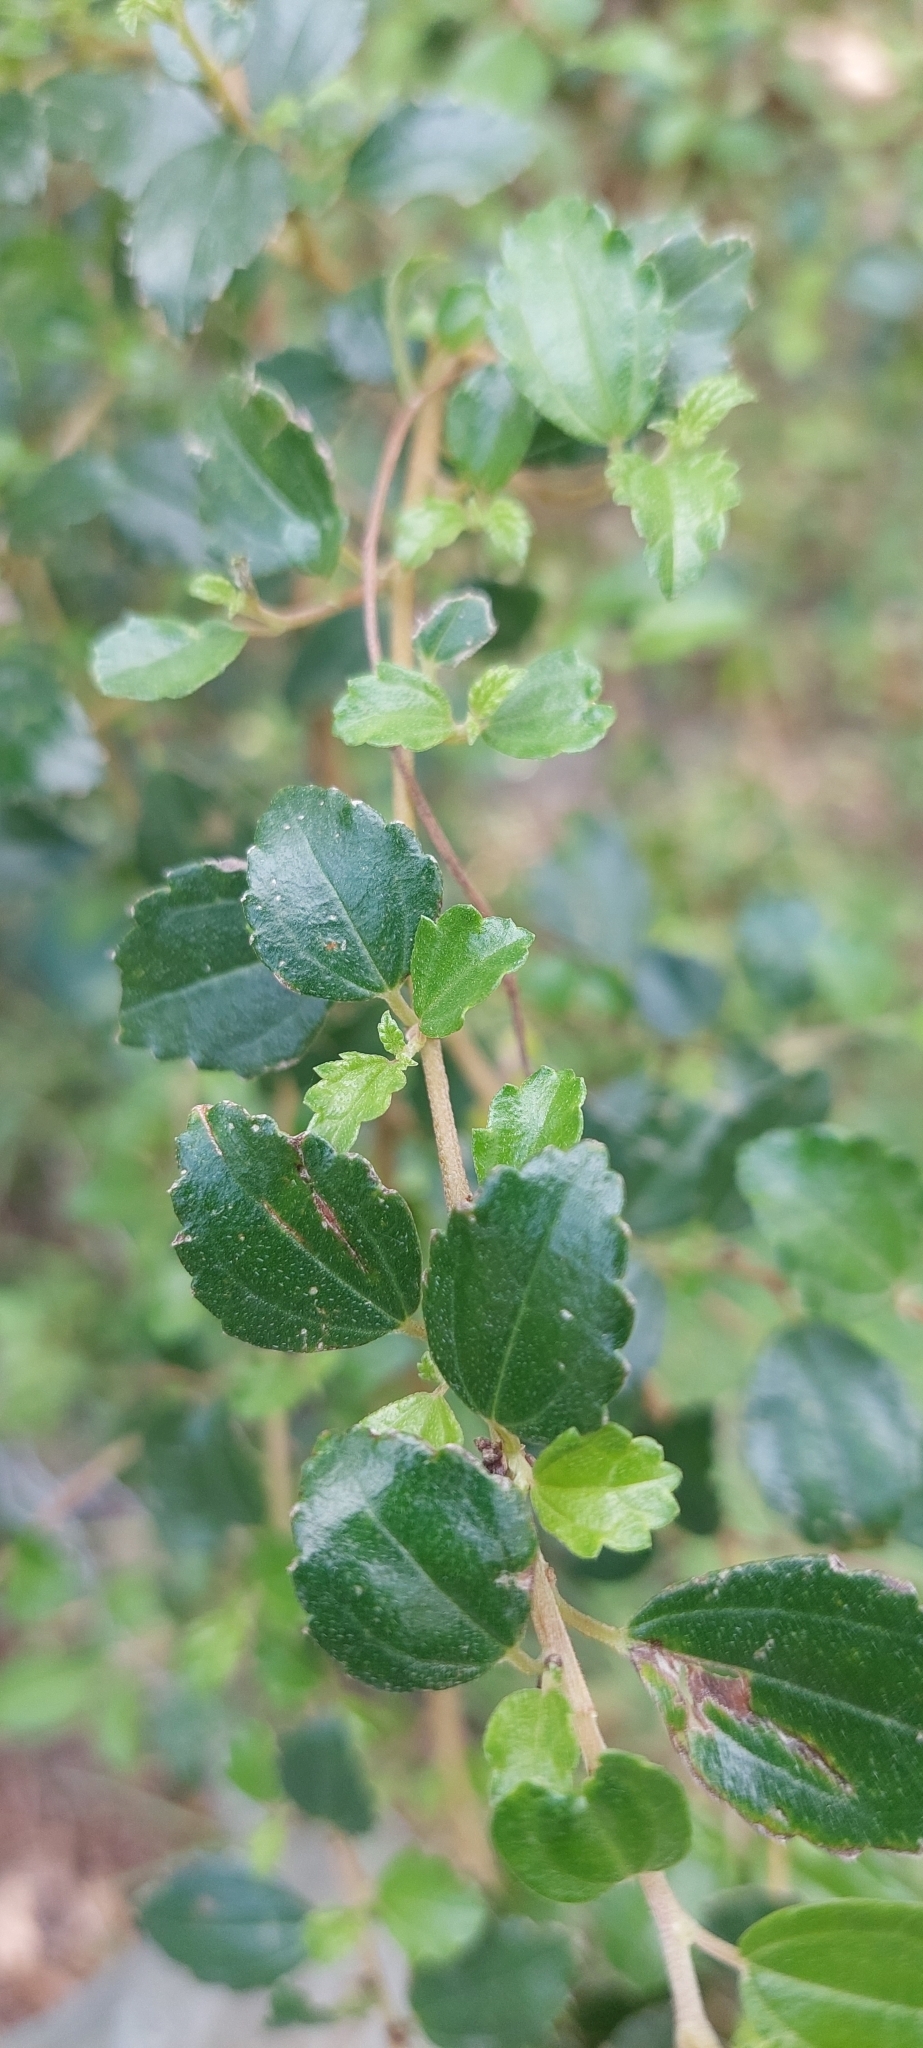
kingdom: Plantae
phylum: Tracheophyta
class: Magnoliopsida
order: Rosales
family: Urticaceae
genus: Pouzolzia
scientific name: Pouzolzia sanguinea
